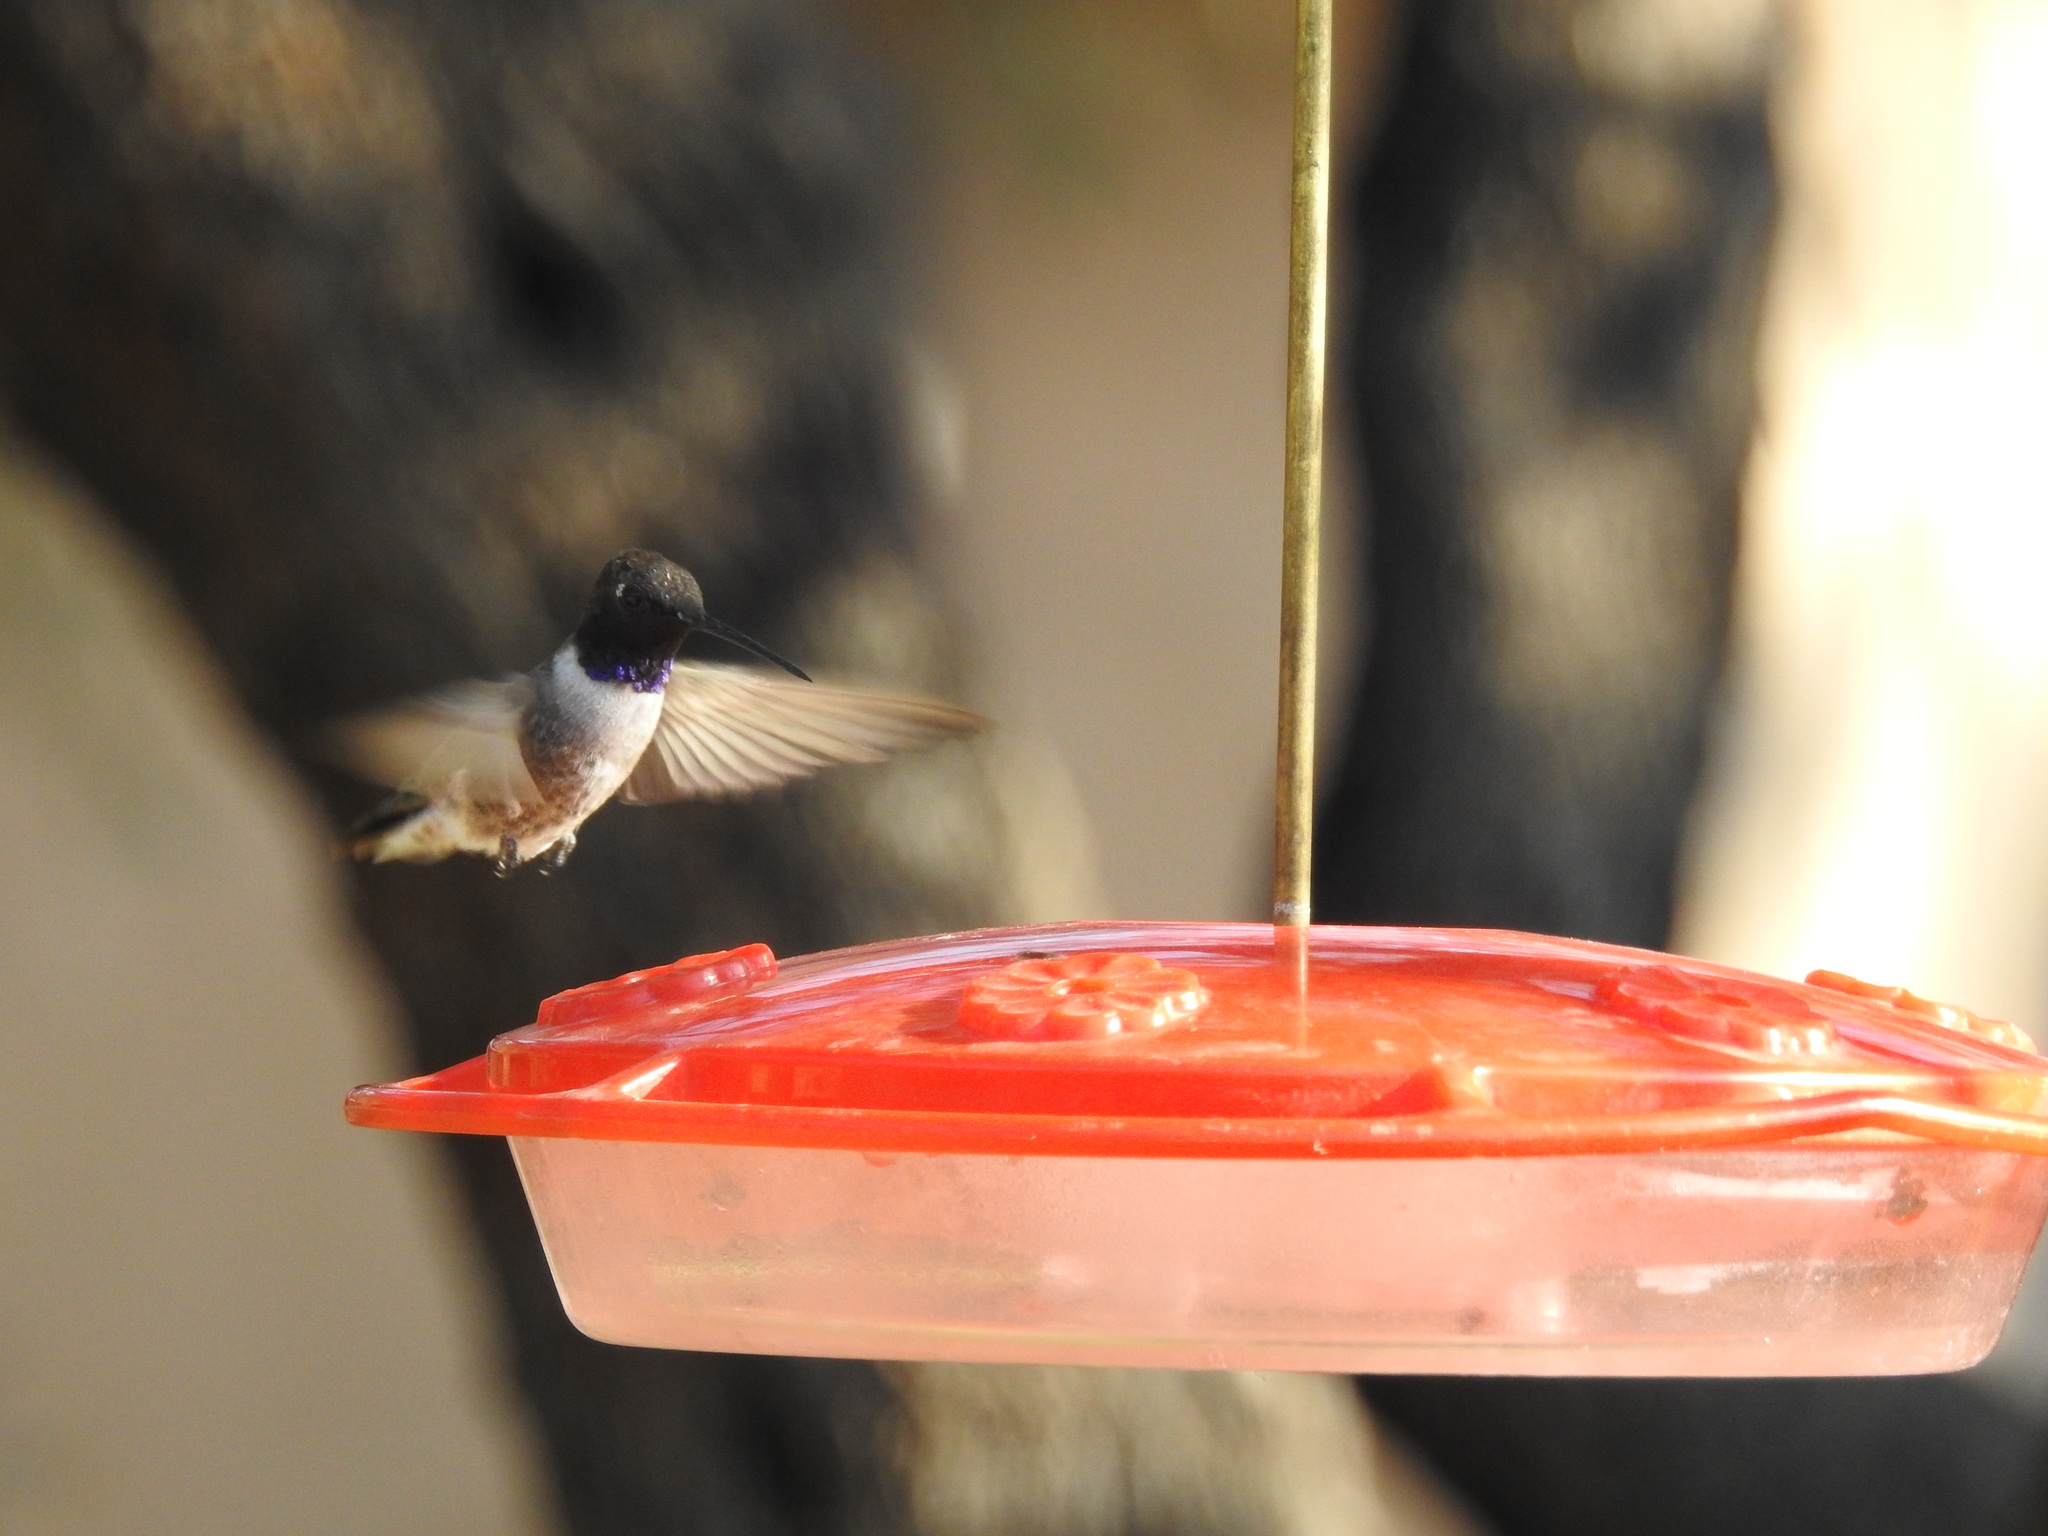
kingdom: Animalia
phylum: Chordata
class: Aves
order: Apodiformes
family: Trochilidae
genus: Archilochus
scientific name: Archilochus alexandri
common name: Black-chinned hummingbird
